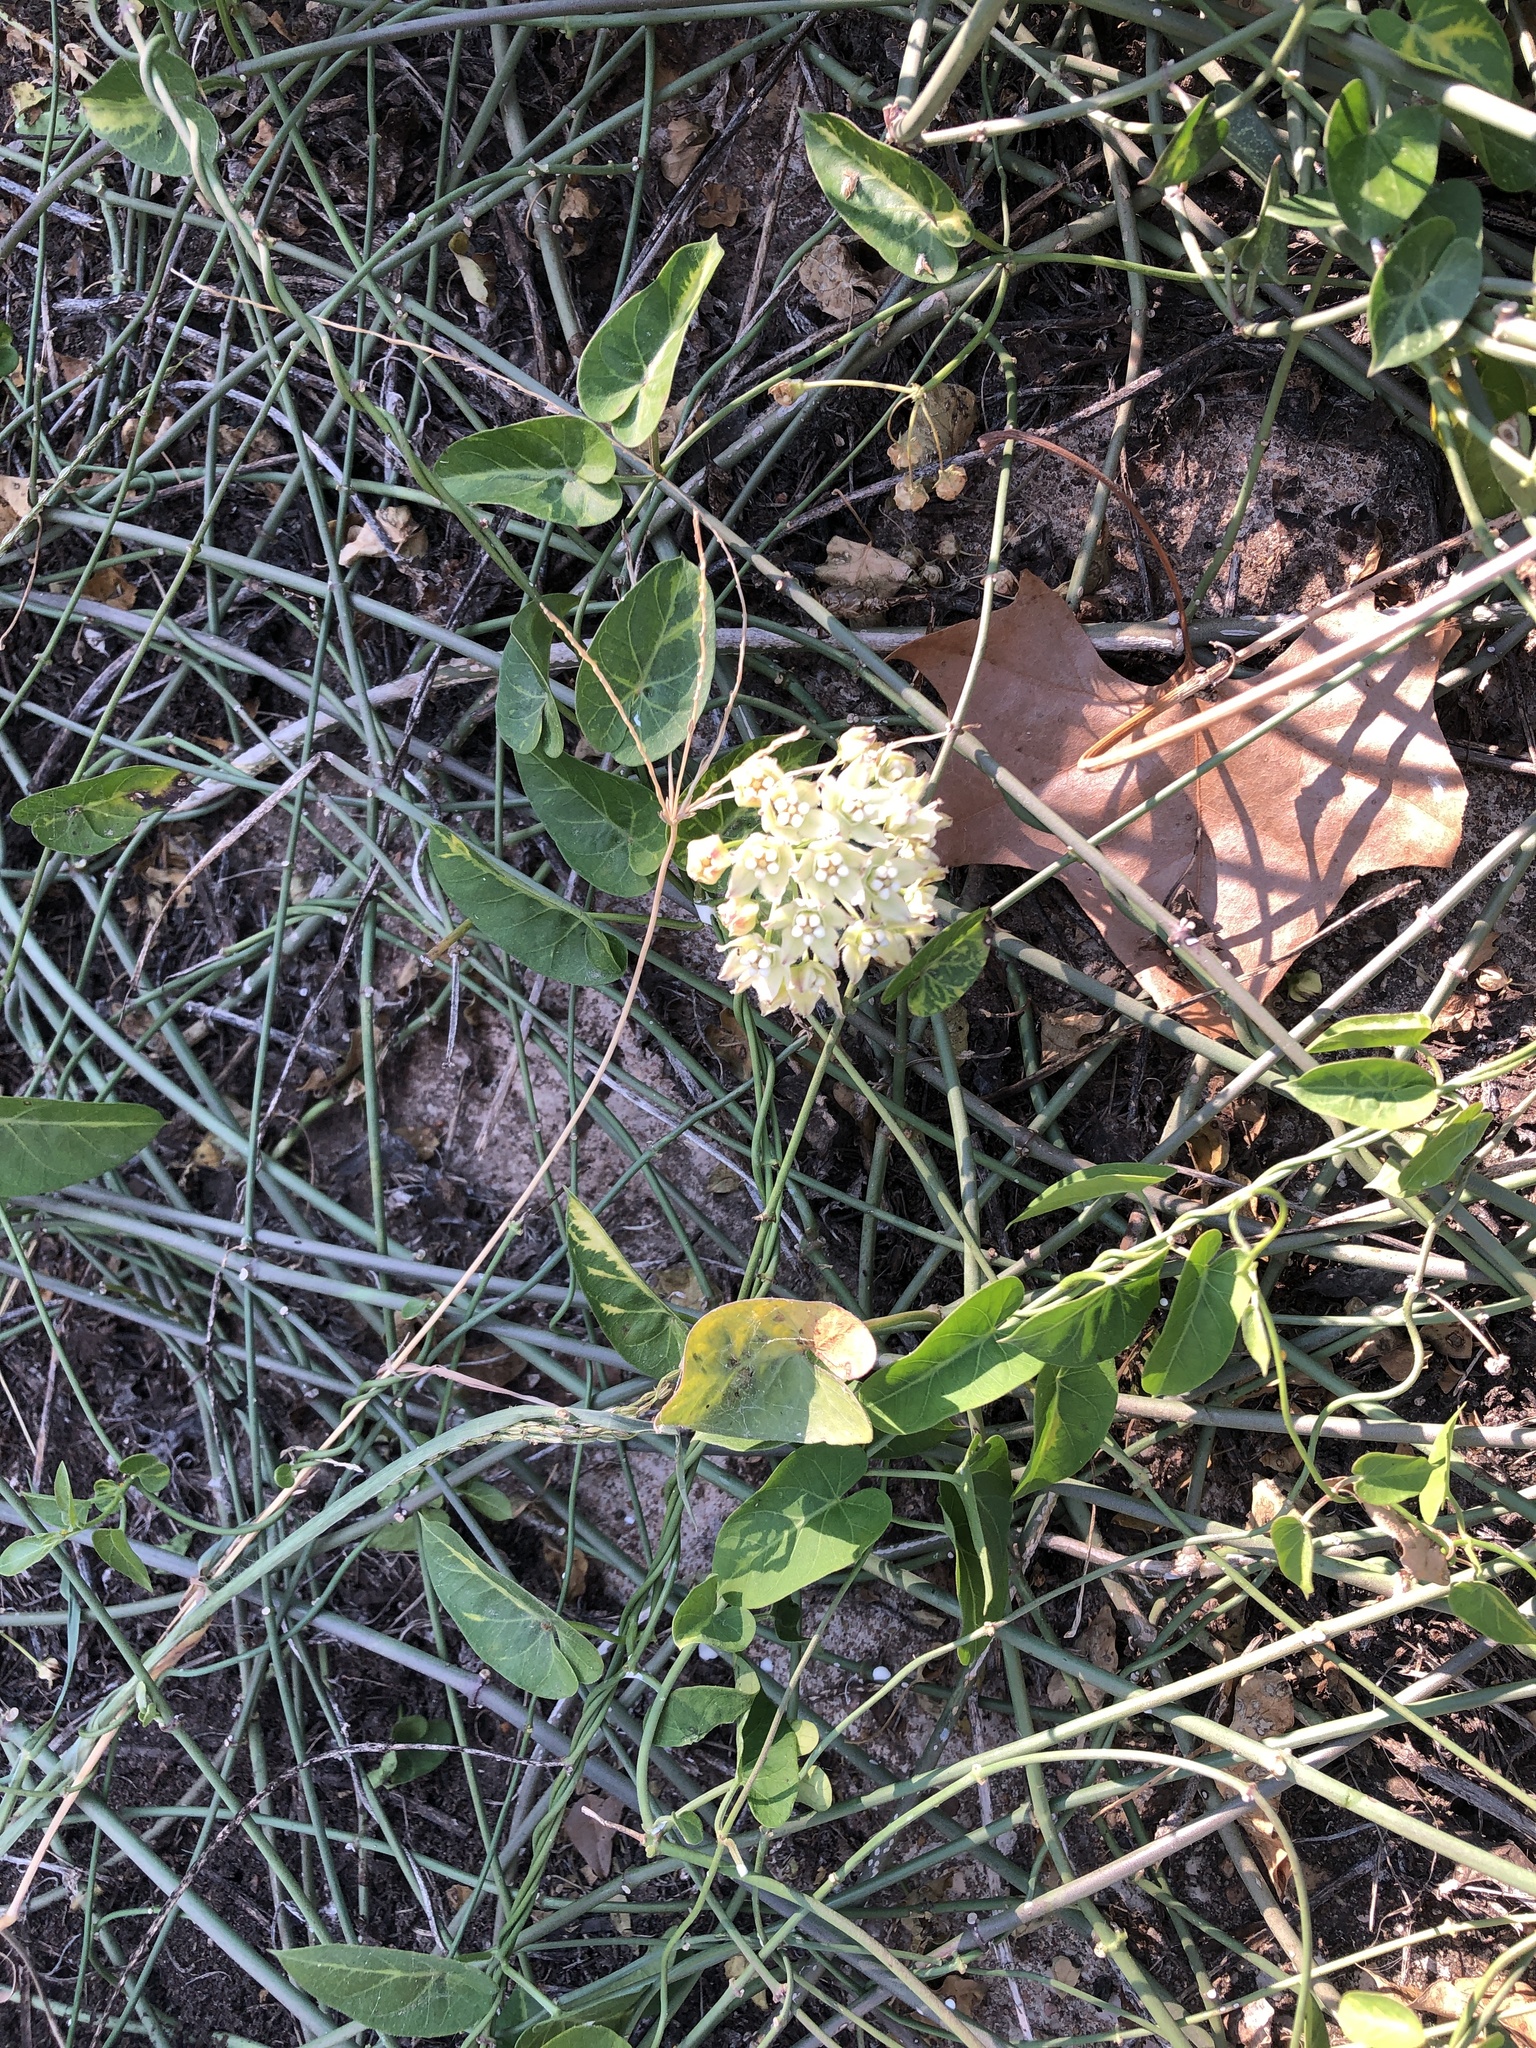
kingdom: Plantae
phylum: Tracheophyta
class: Magnoliopsida
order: Gentianales
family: Apocynaceae
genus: Funastrum
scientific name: Funastrum cynanchoides
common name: Climbing-milkweed
